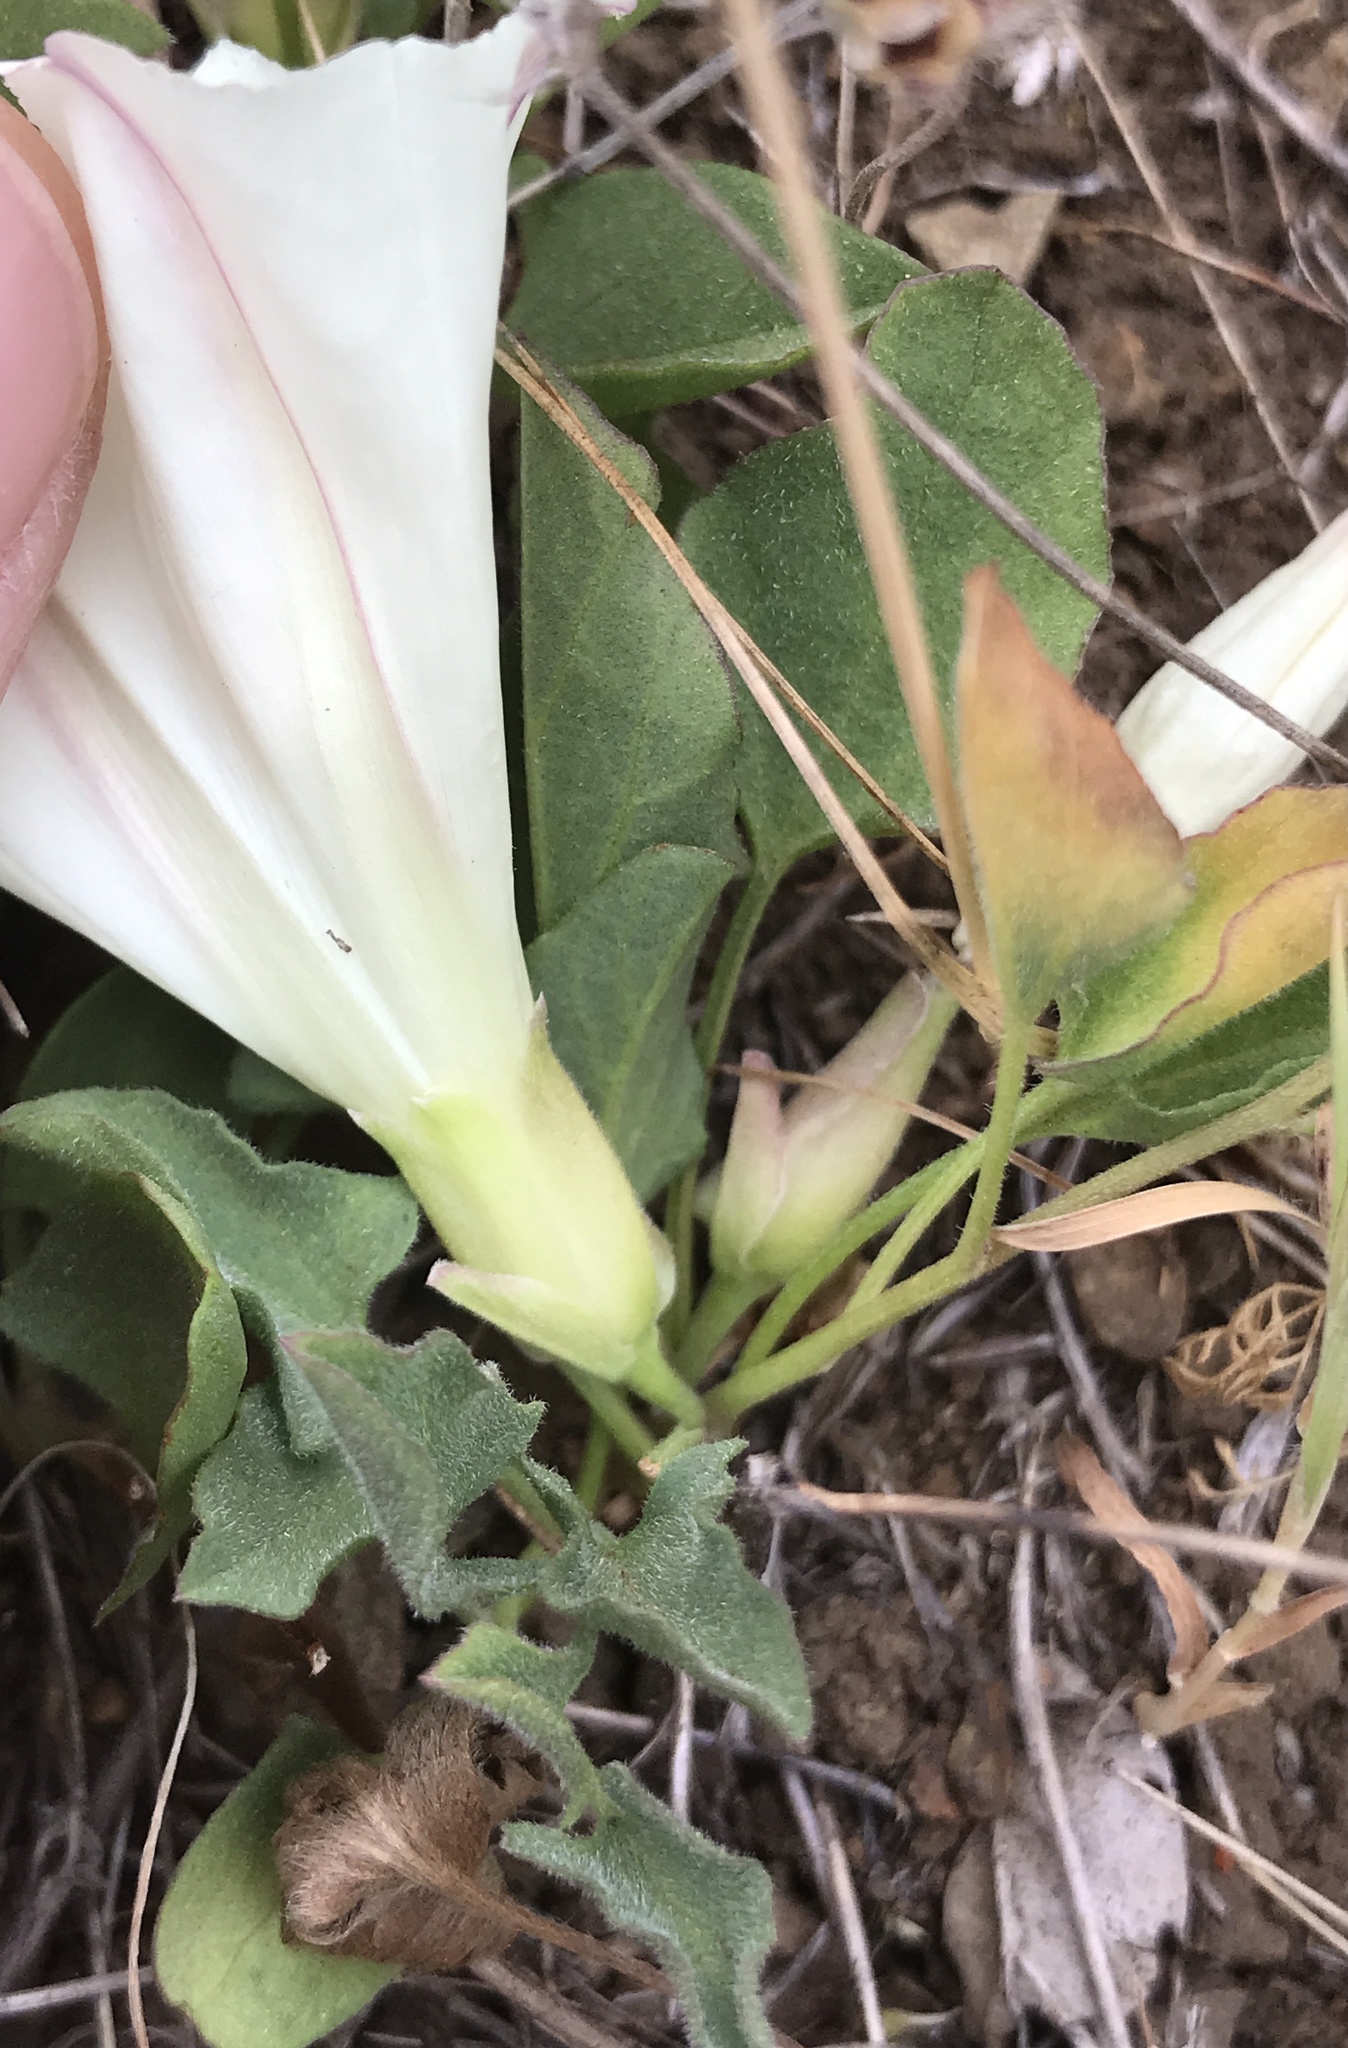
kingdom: Plantae
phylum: Tracheophyta
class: Magnoliopsida
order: Solanales
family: Convolvulaceae
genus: Calystegia
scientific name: Calystegia subacaulis
